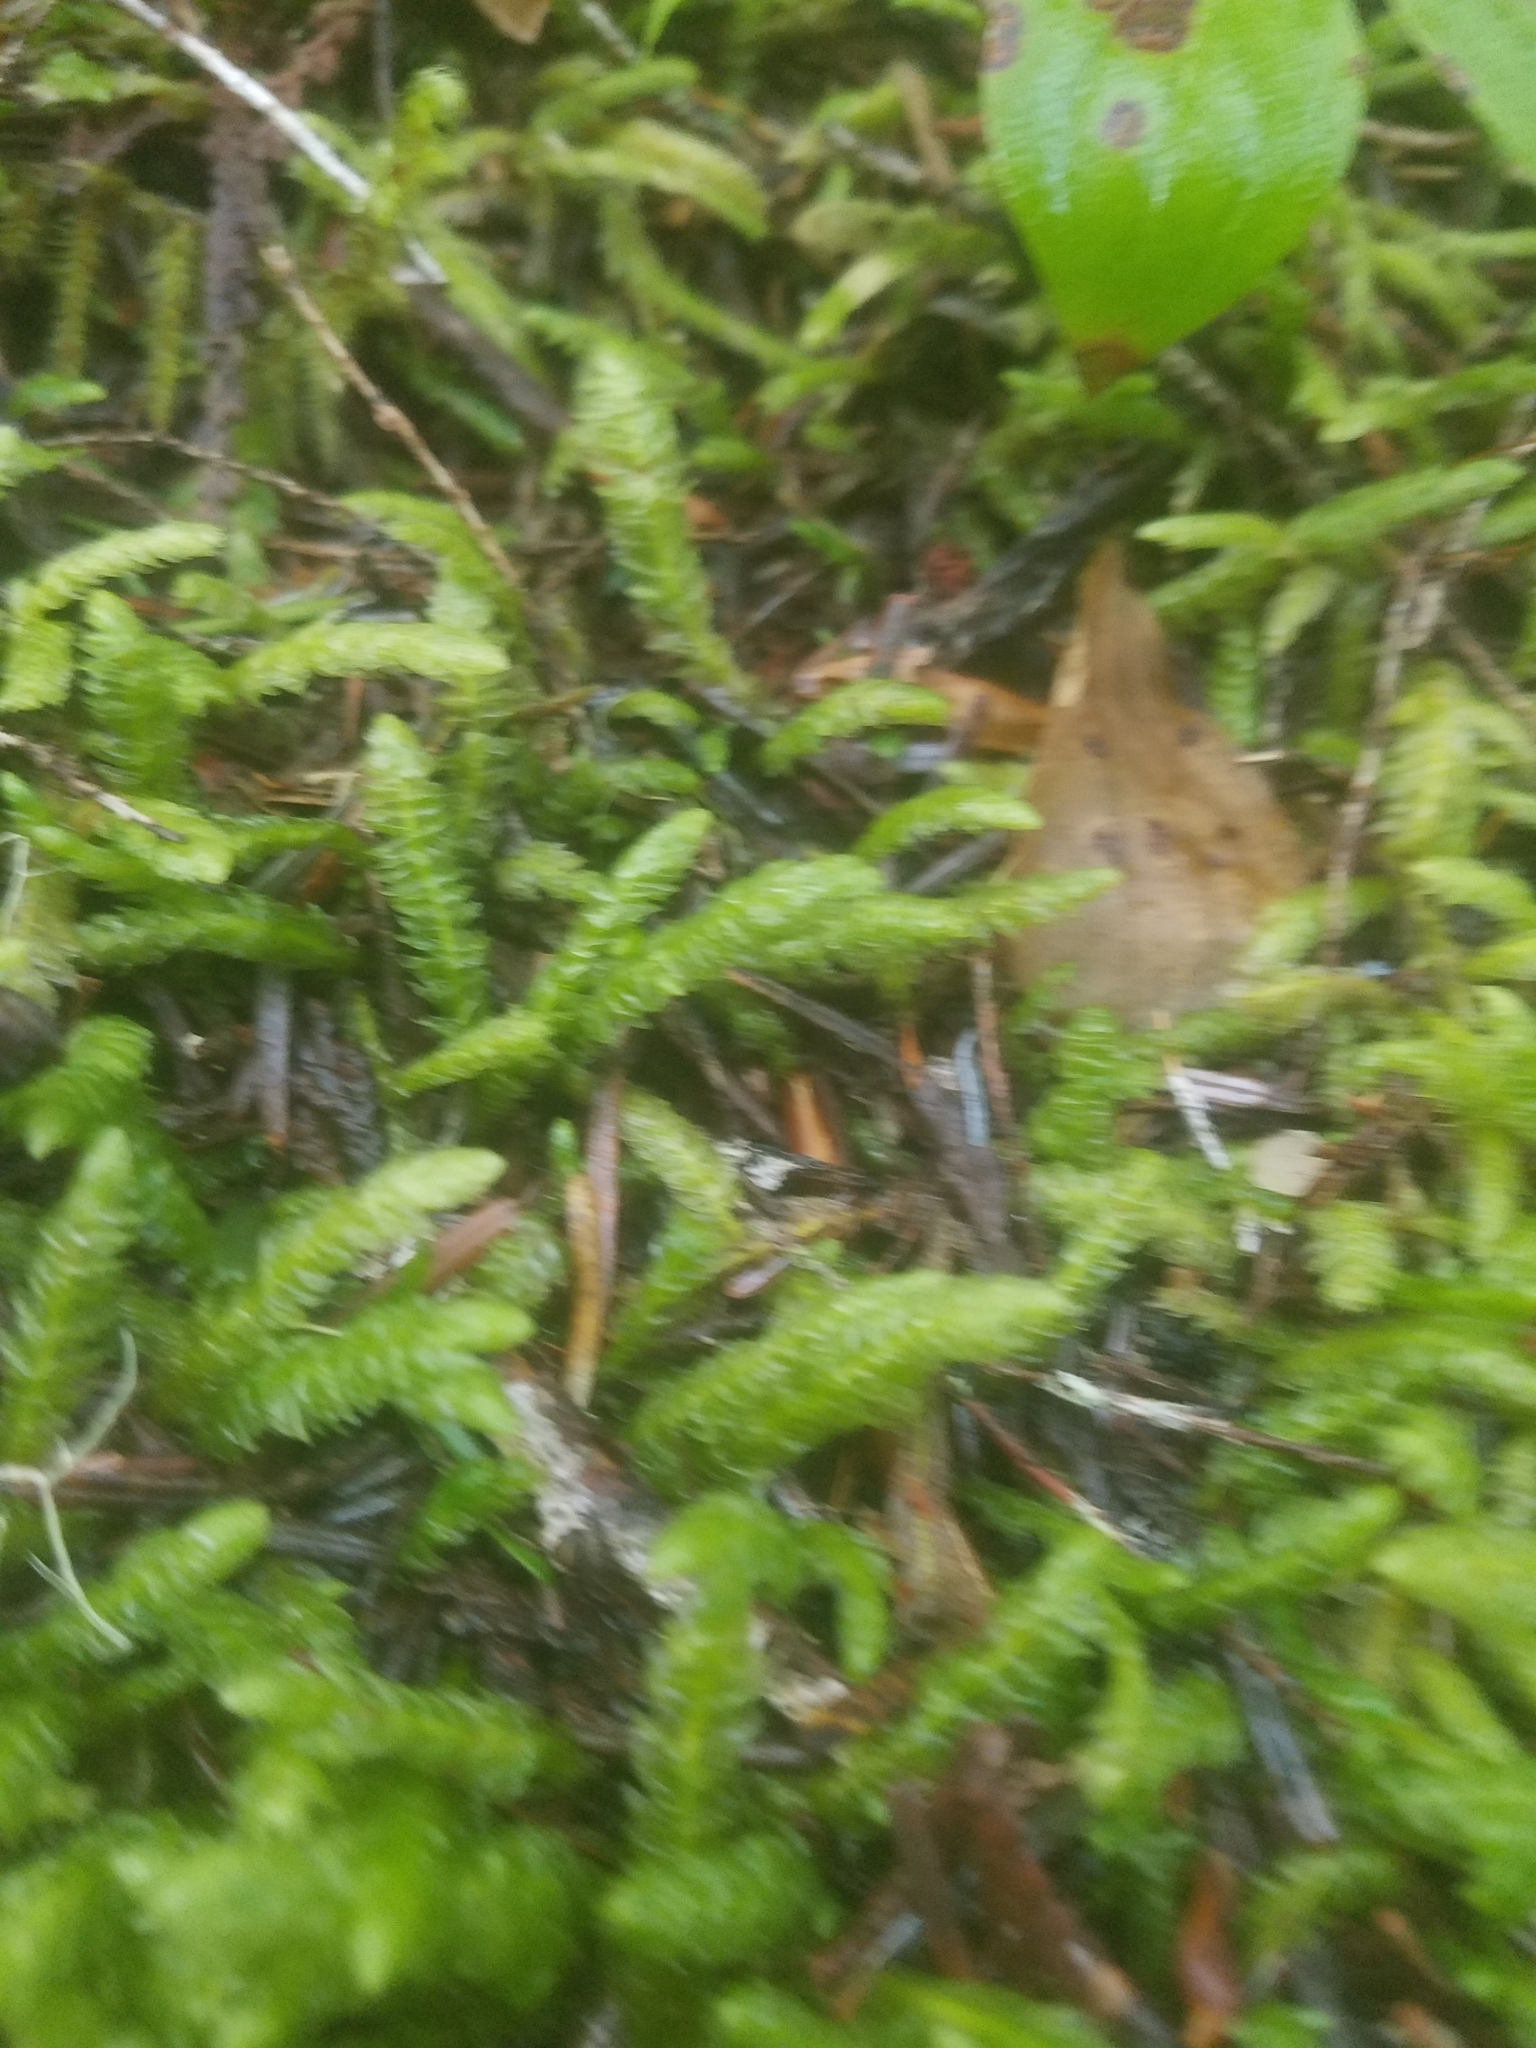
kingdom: Plantae
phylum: Bryophyta
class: Bryopsida
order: Hypnales
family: Plagiotheciaceae
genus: Plagiothecium
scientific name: Plagiothecium undulatum
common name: Waved silk-moss
